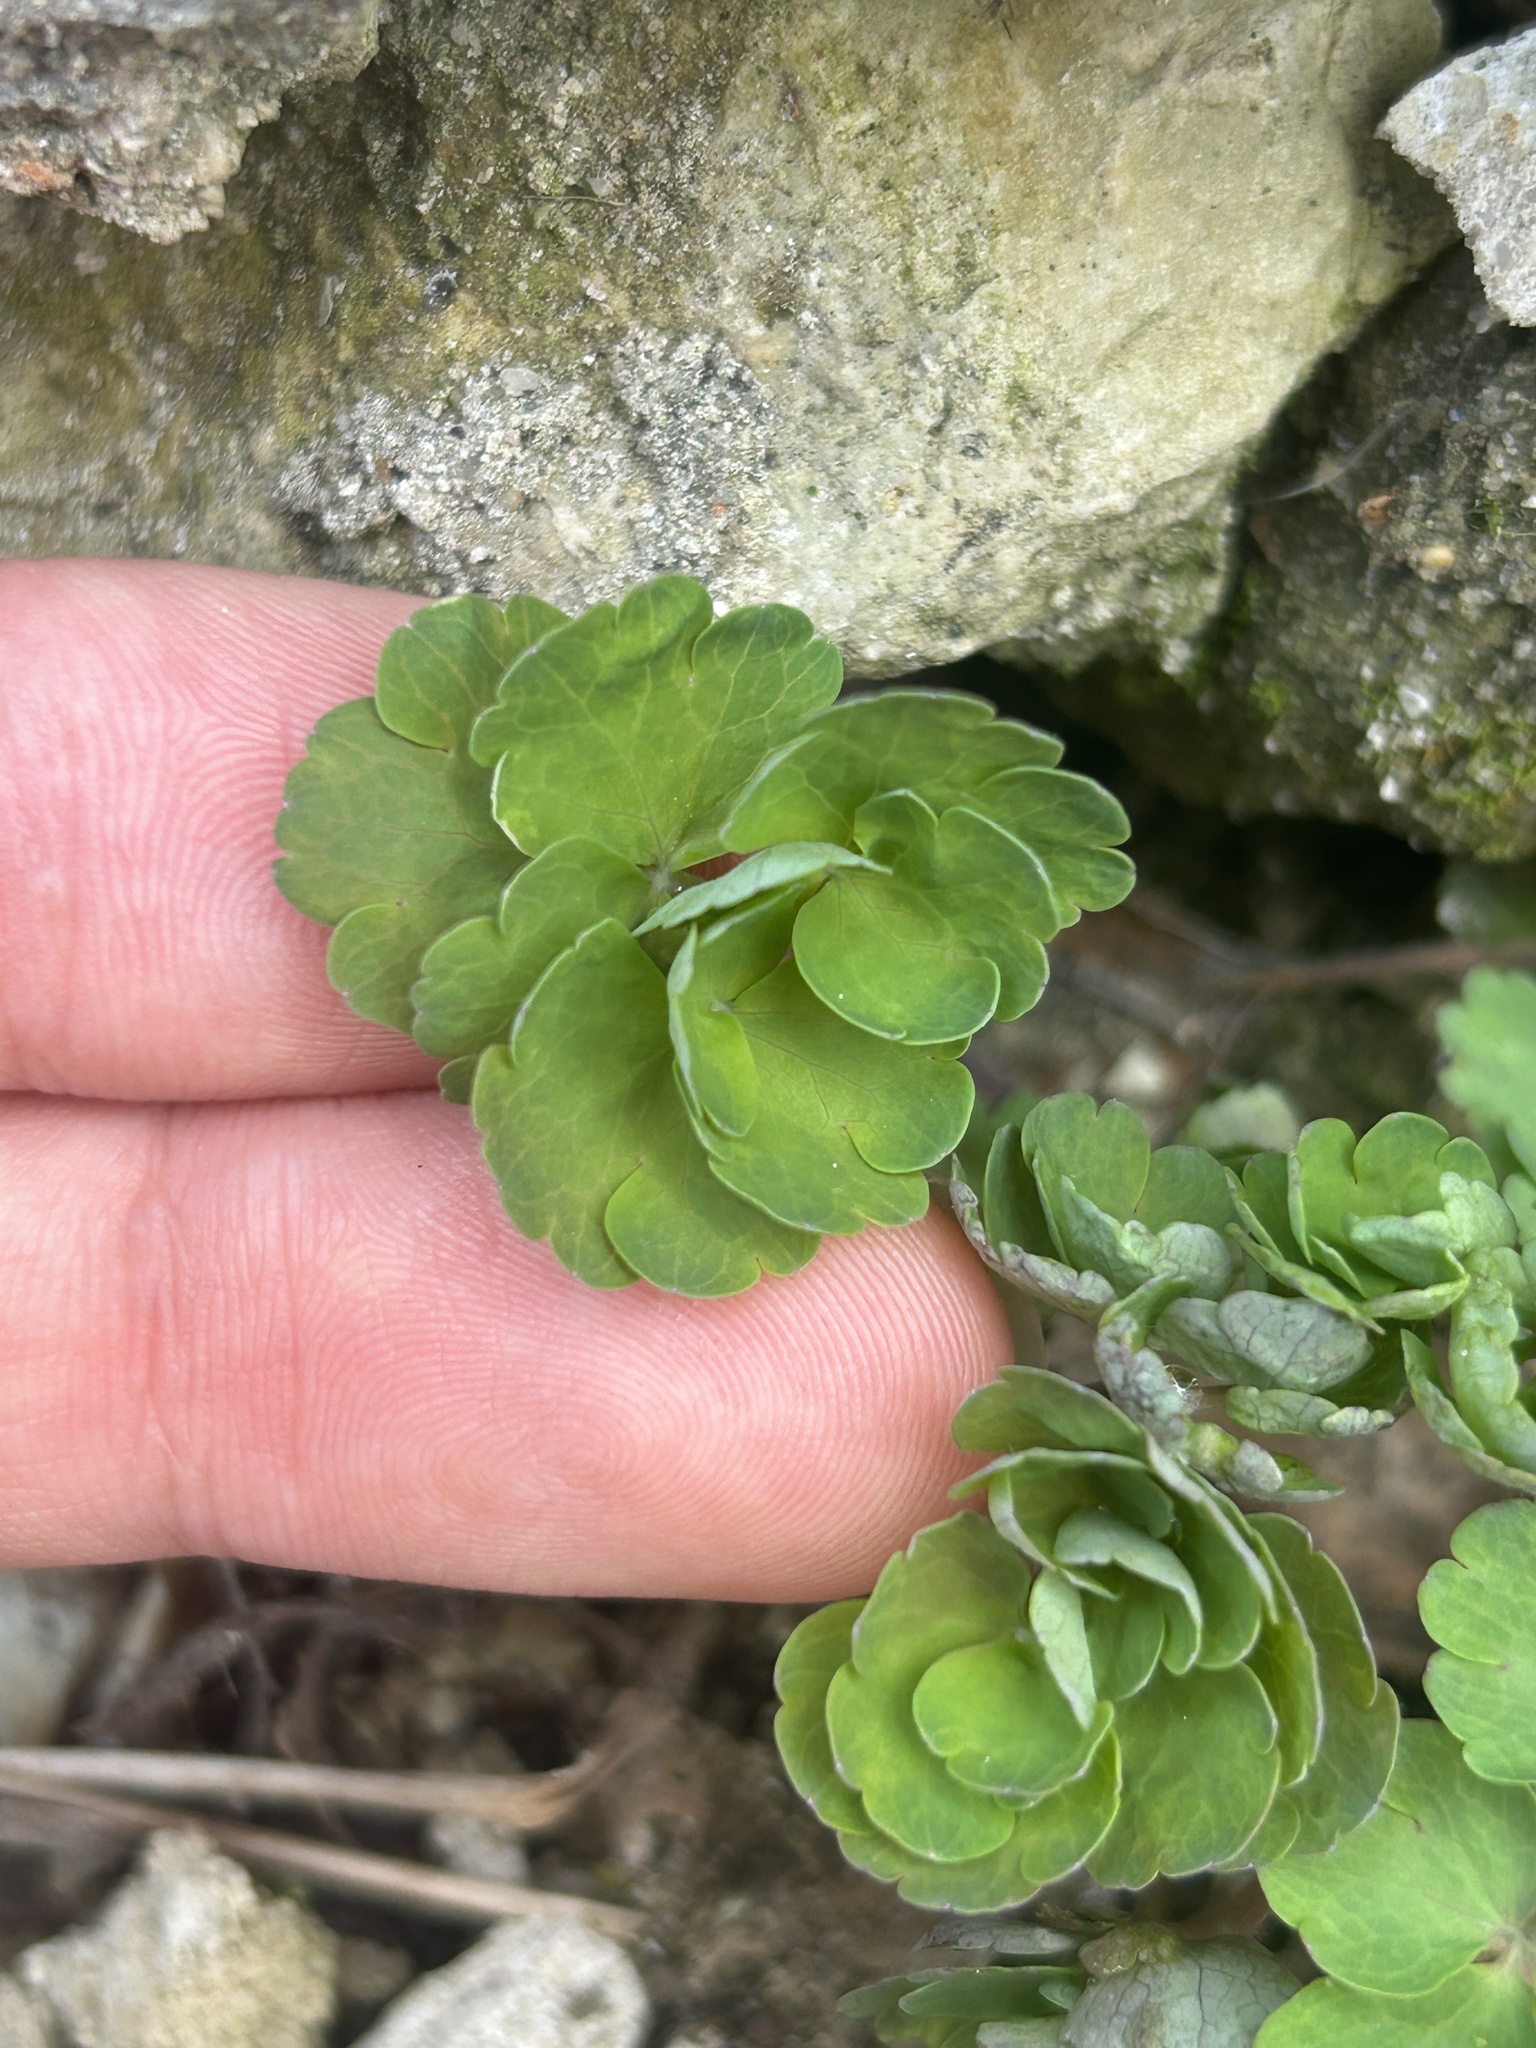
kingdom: Plantae
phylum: Tracheophyta
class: Magnoliopsida
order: Ranunculales
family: Ranunculaceae
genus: Aquilegia
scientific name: Aquilegia vulgaris
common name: Columbine
